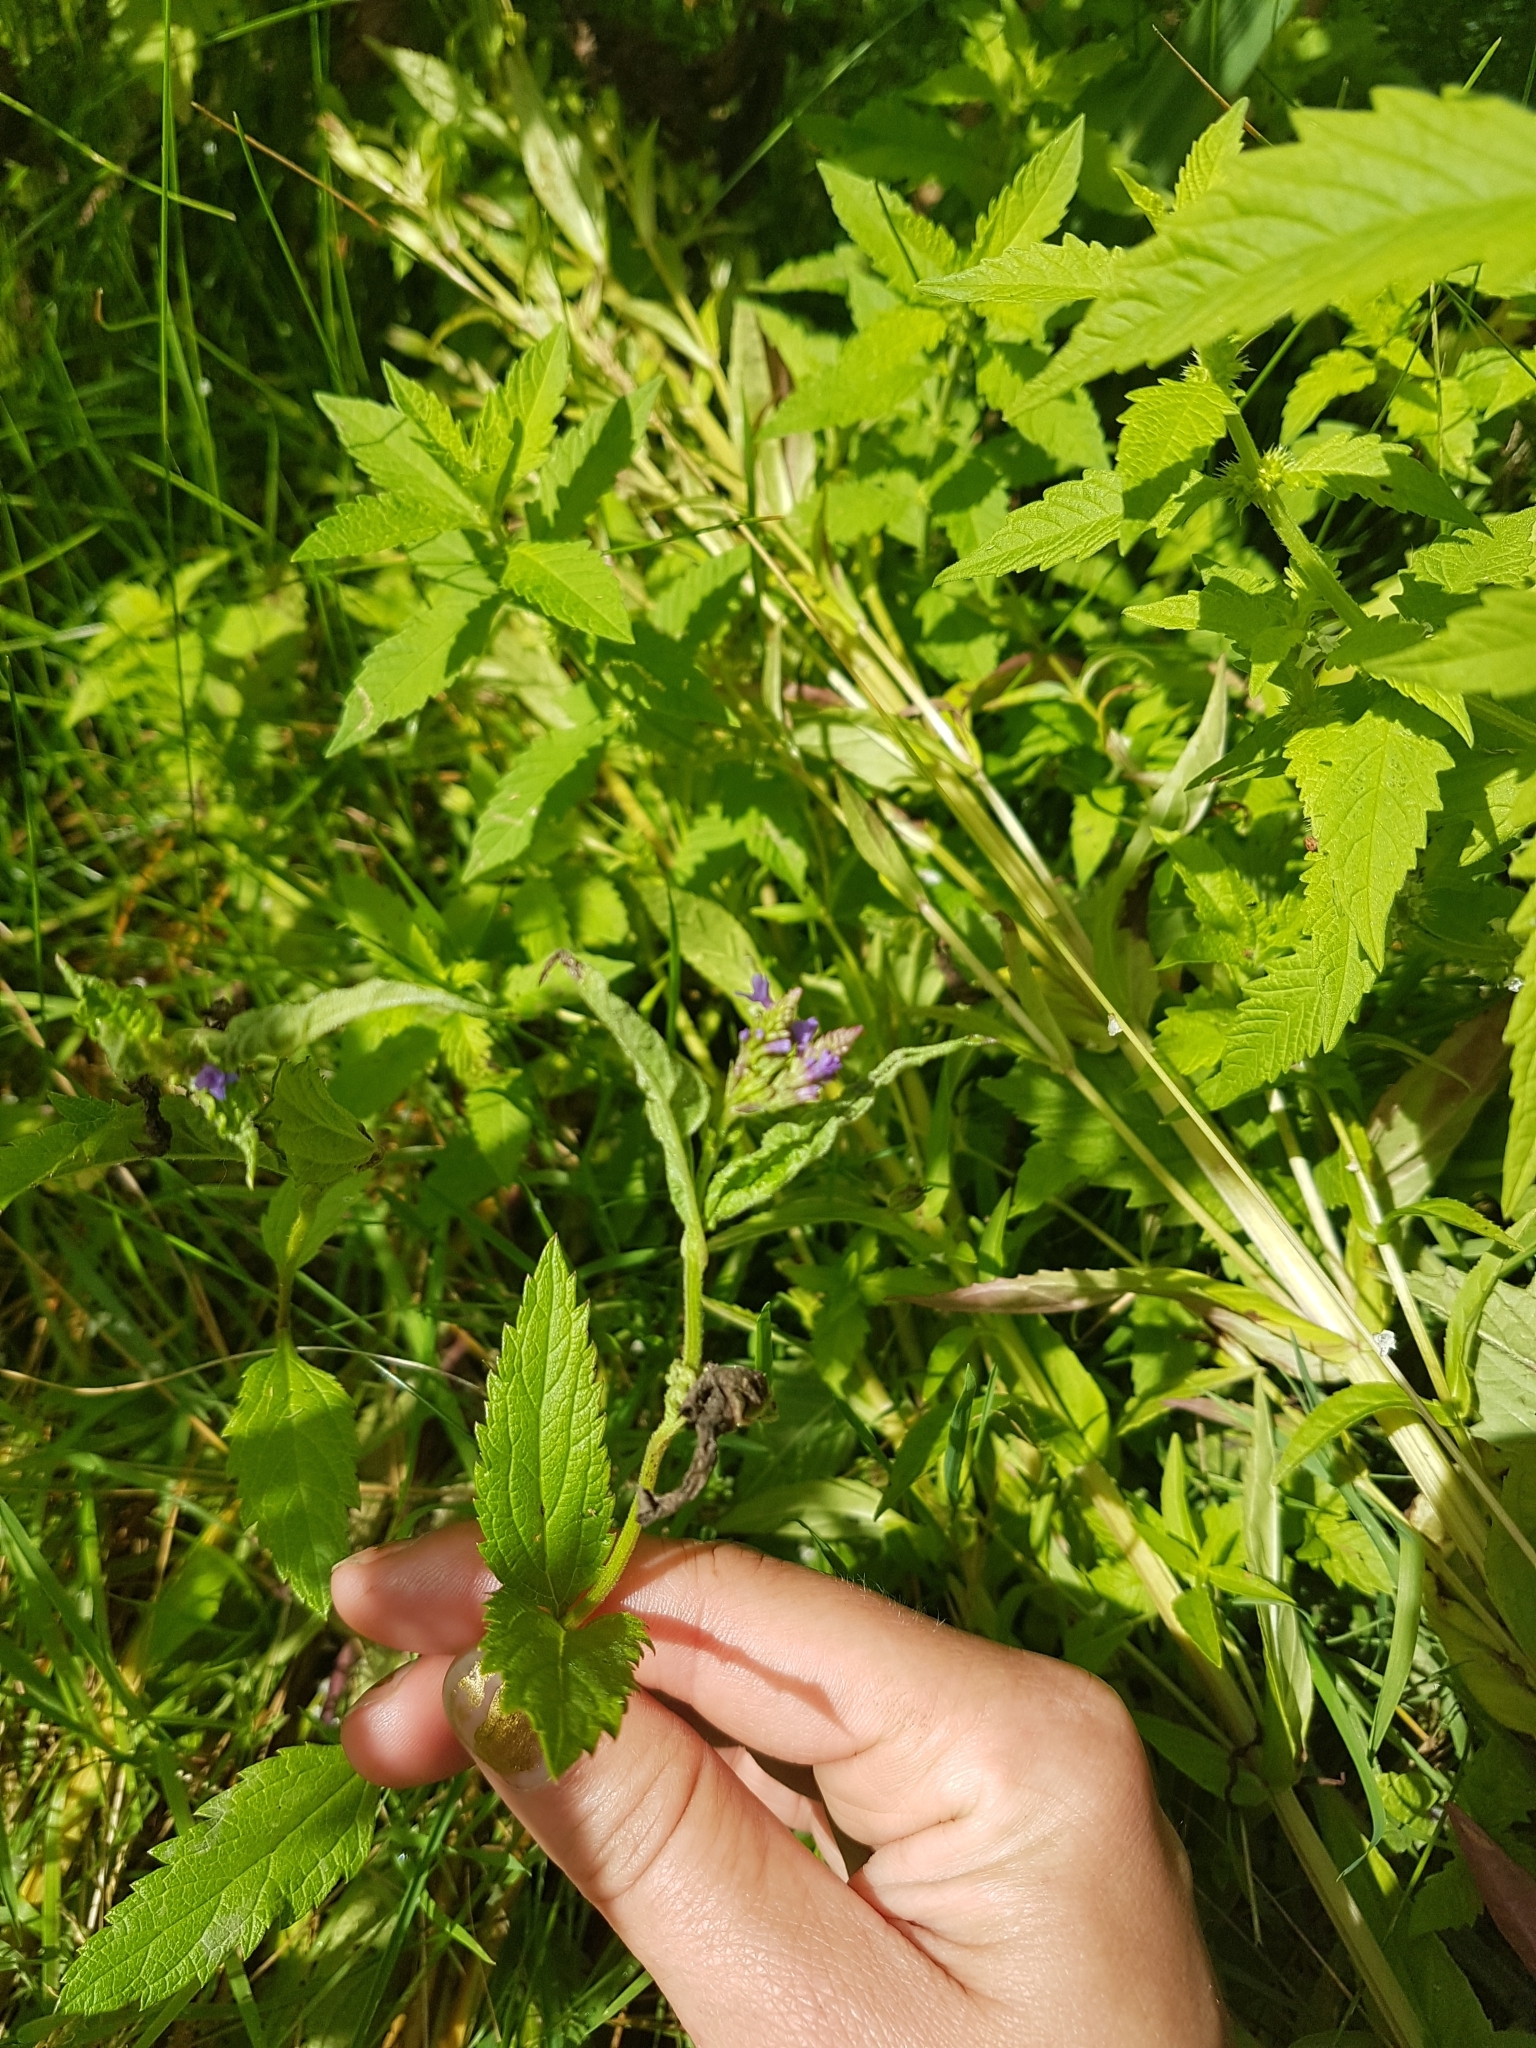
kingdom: Plantae
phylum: Tracheophyta
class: Magnoliopsida
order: Lamiales
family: Verbenaceae
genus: Verbena
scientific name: Verbena hastata
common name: American blue vervain
